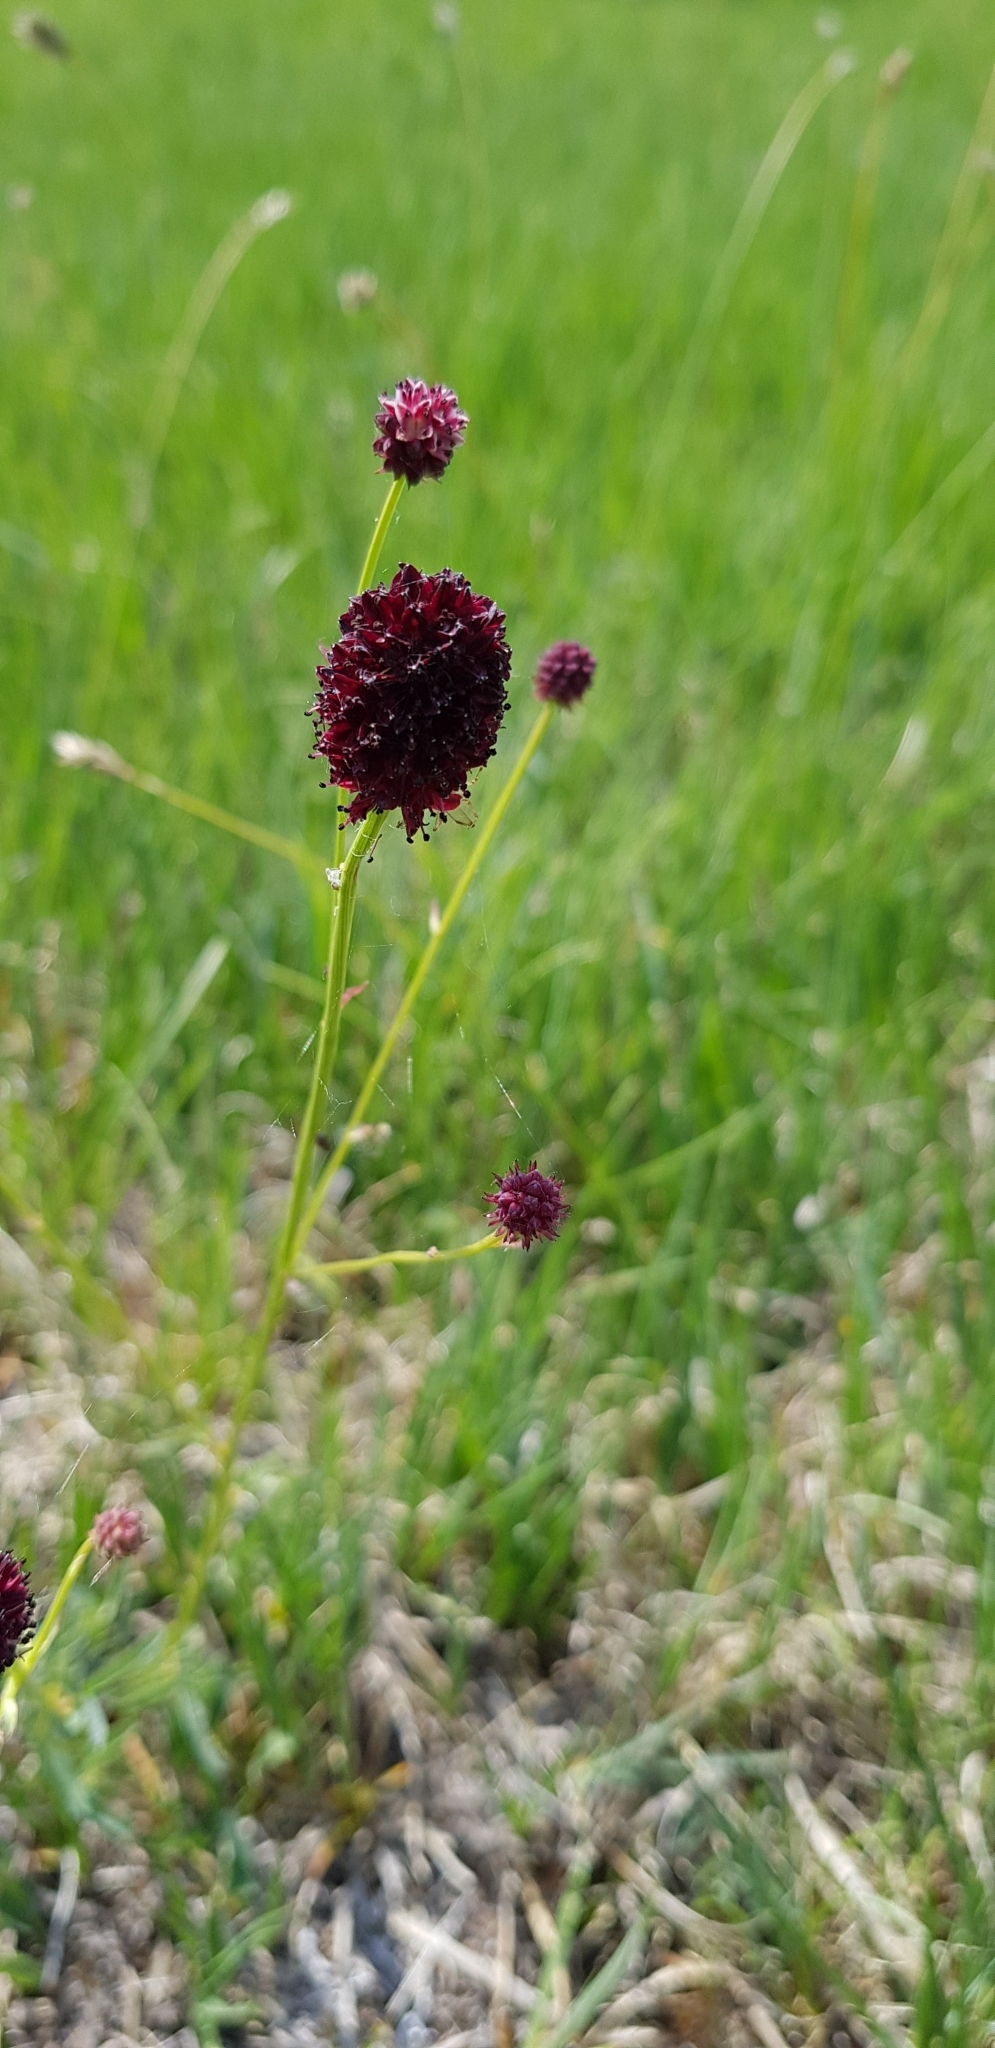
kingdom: Plantae
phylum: Tracheophyta
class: Magnoliopsida
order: Rosales
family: Rosaceae
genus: Sanguisorba
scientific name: Sanguisorba officinalis
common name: Great burnet
